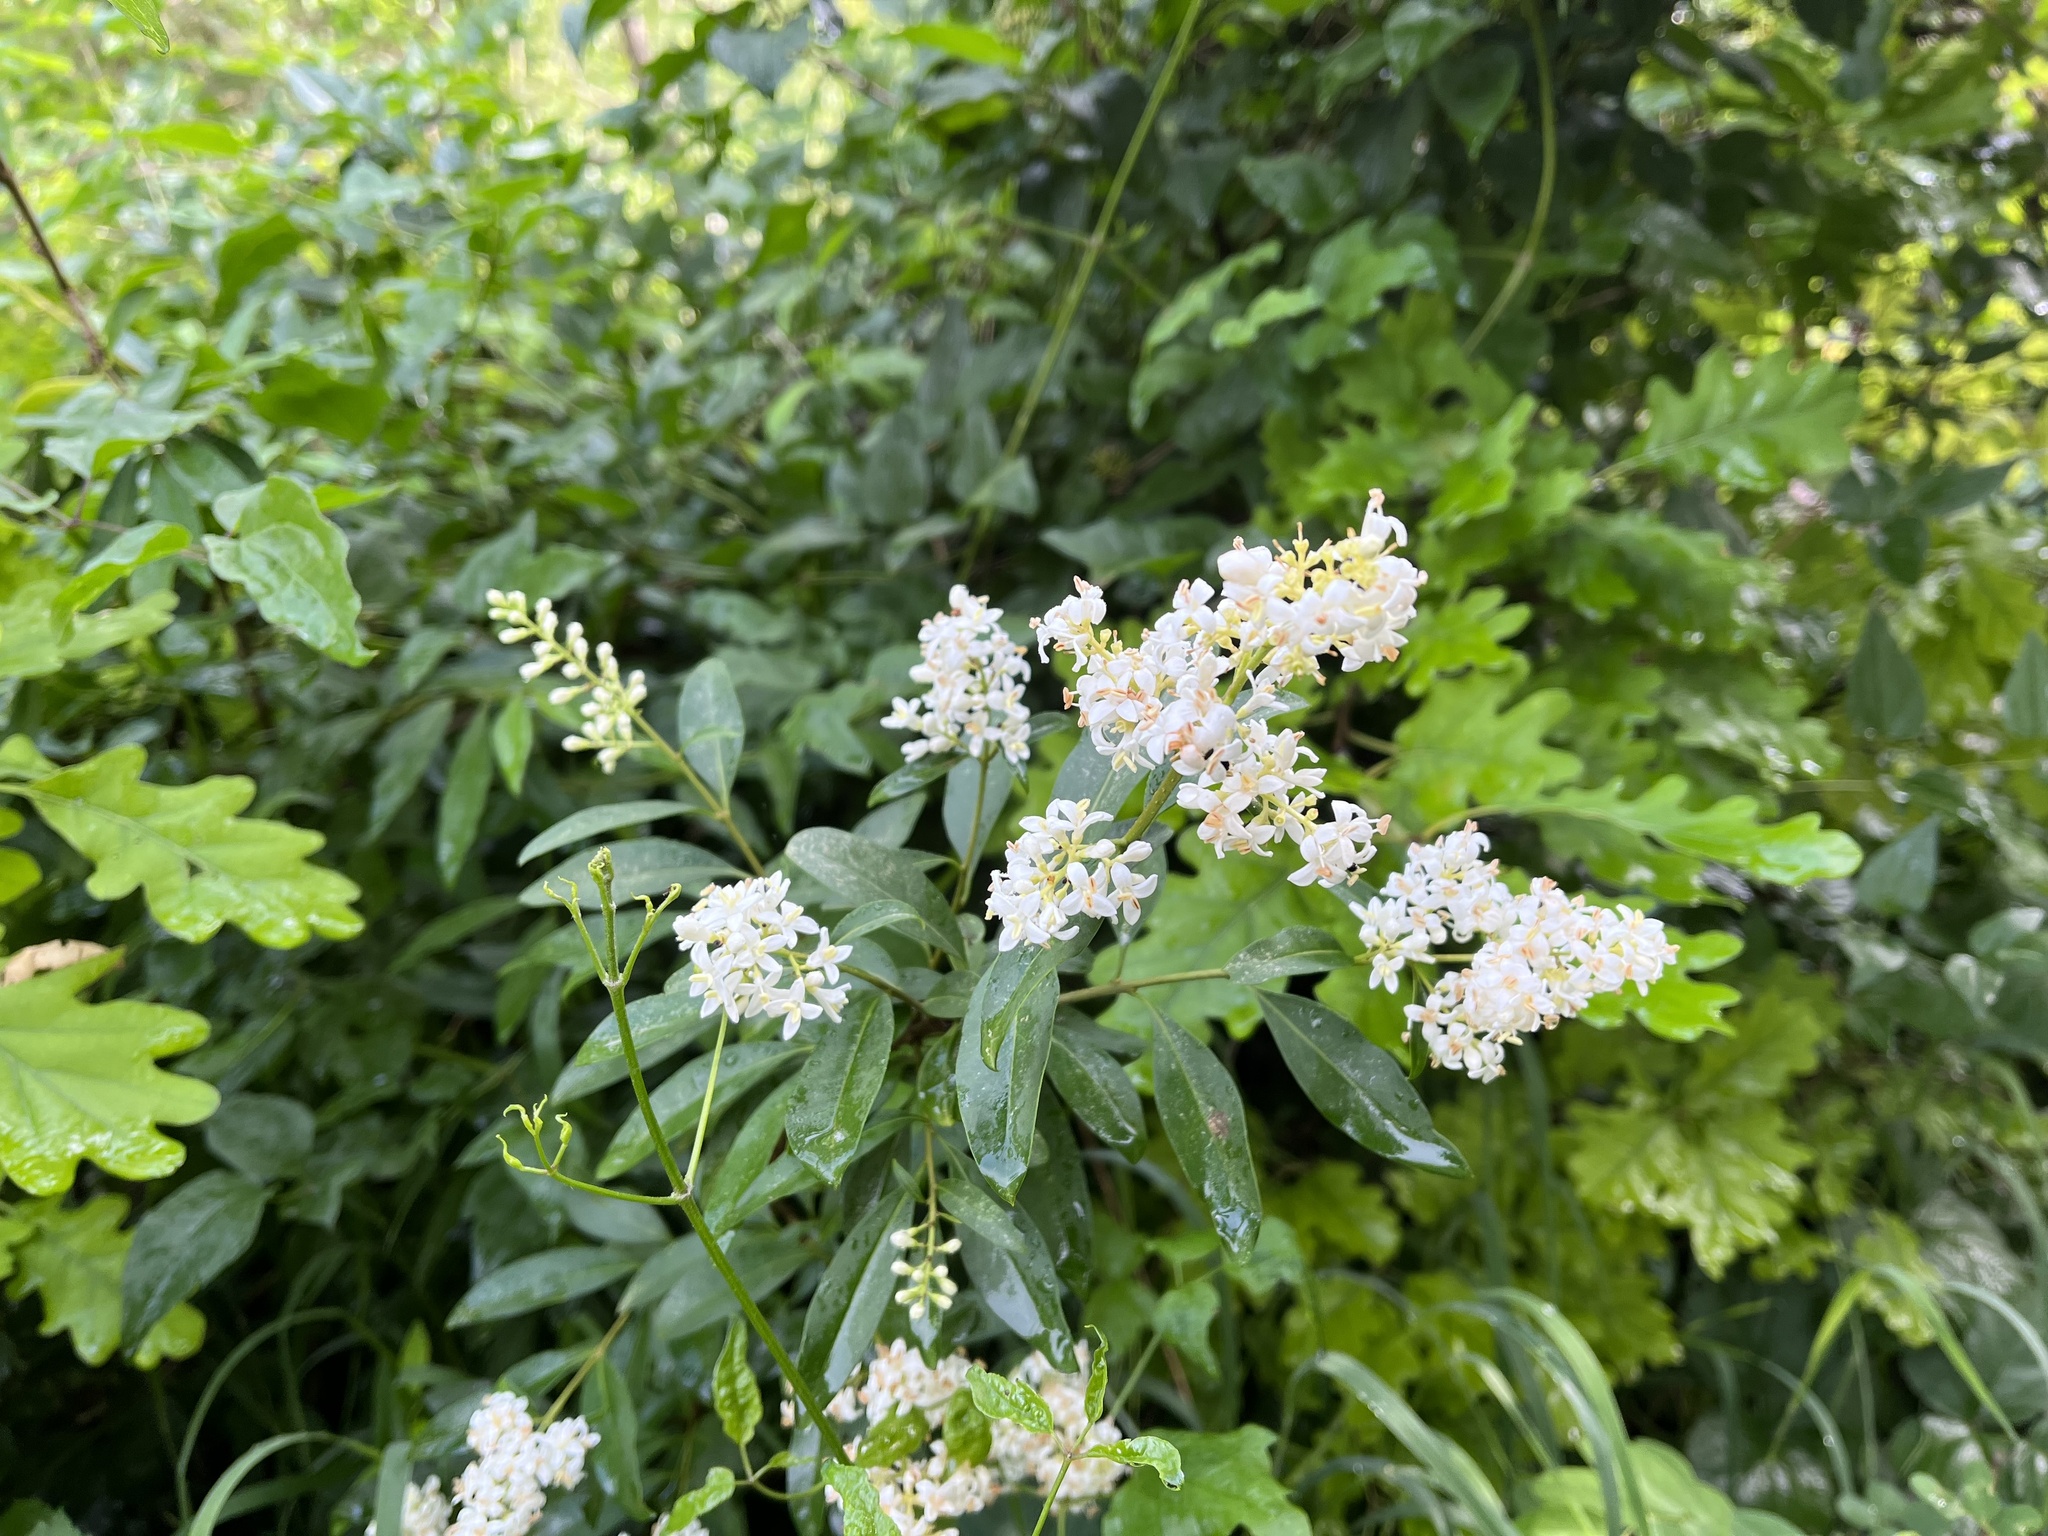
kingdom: Plantae
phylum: Tracheophyta
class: Magnoliopsida
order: Lamiales
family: Oleaceae
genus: Ligustrum
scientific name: Ligustrum vulgare
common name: Wild privet
